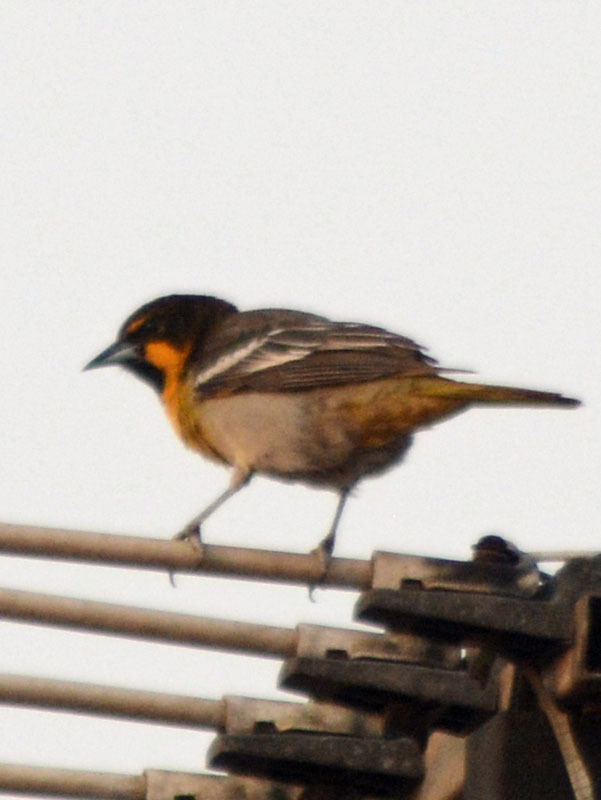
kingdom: Animalia
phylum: Chordata
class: Aves
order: Passeriformes
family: Icteridae
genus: Icterus
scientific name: Icterus abeillei
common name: Black-backed oriole
